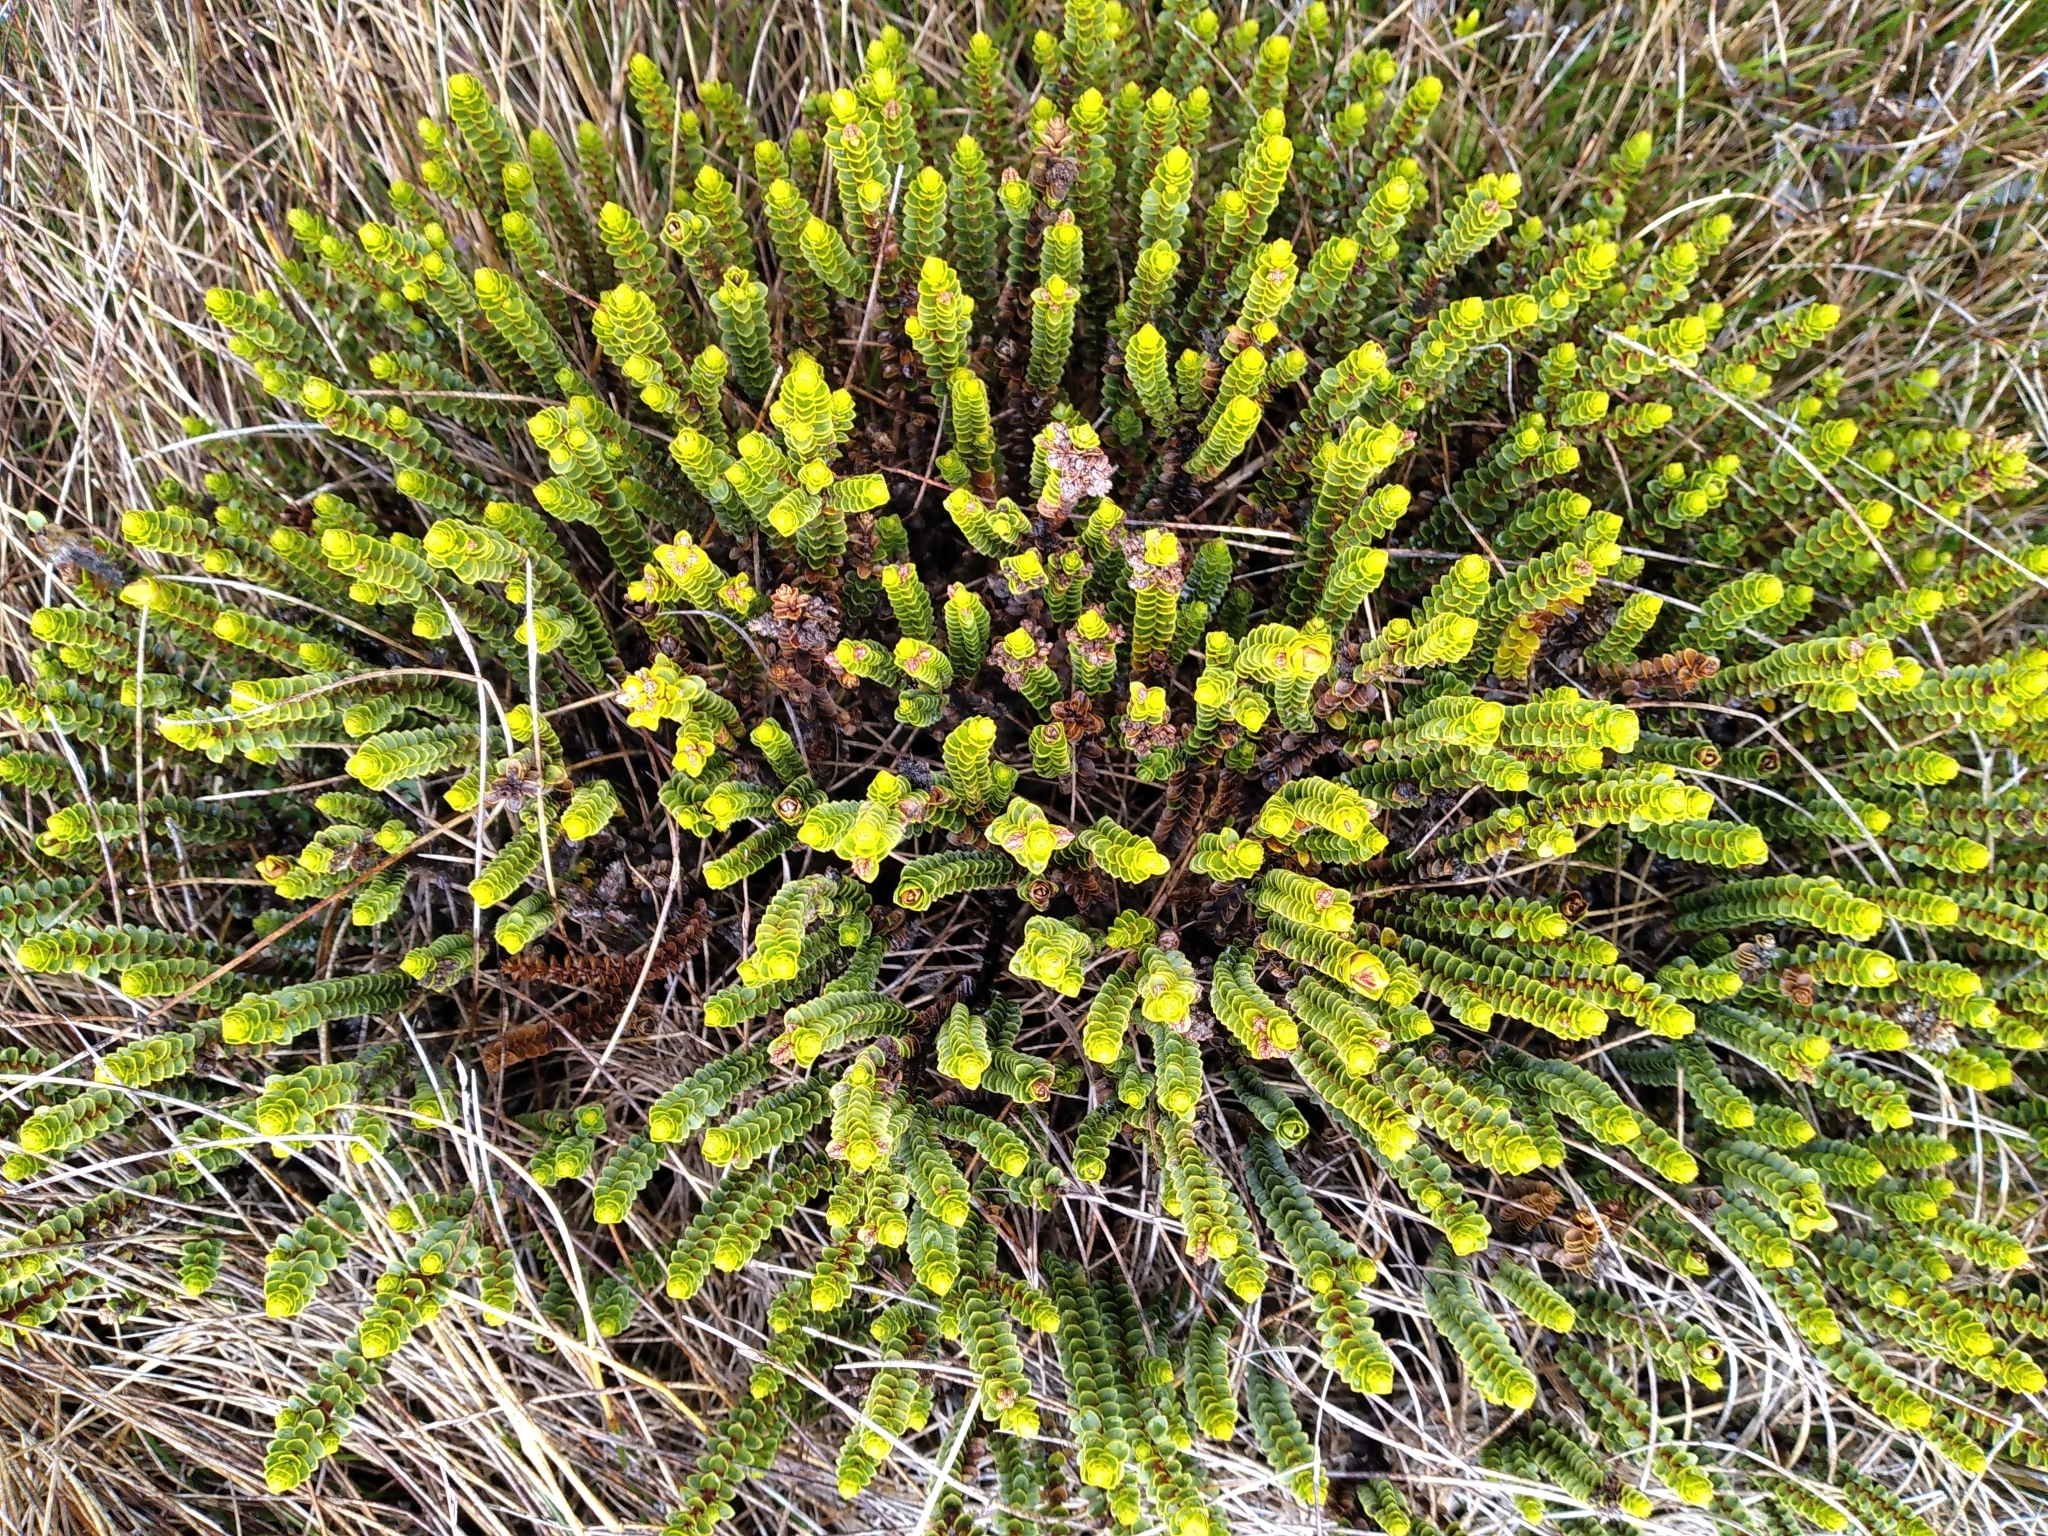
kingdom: Plantae
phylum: Tracheophyta
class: Magnoliopsida
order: Lamiales
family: Plantaginaceae
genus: Veronica
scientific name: Veronica pauciramosa
